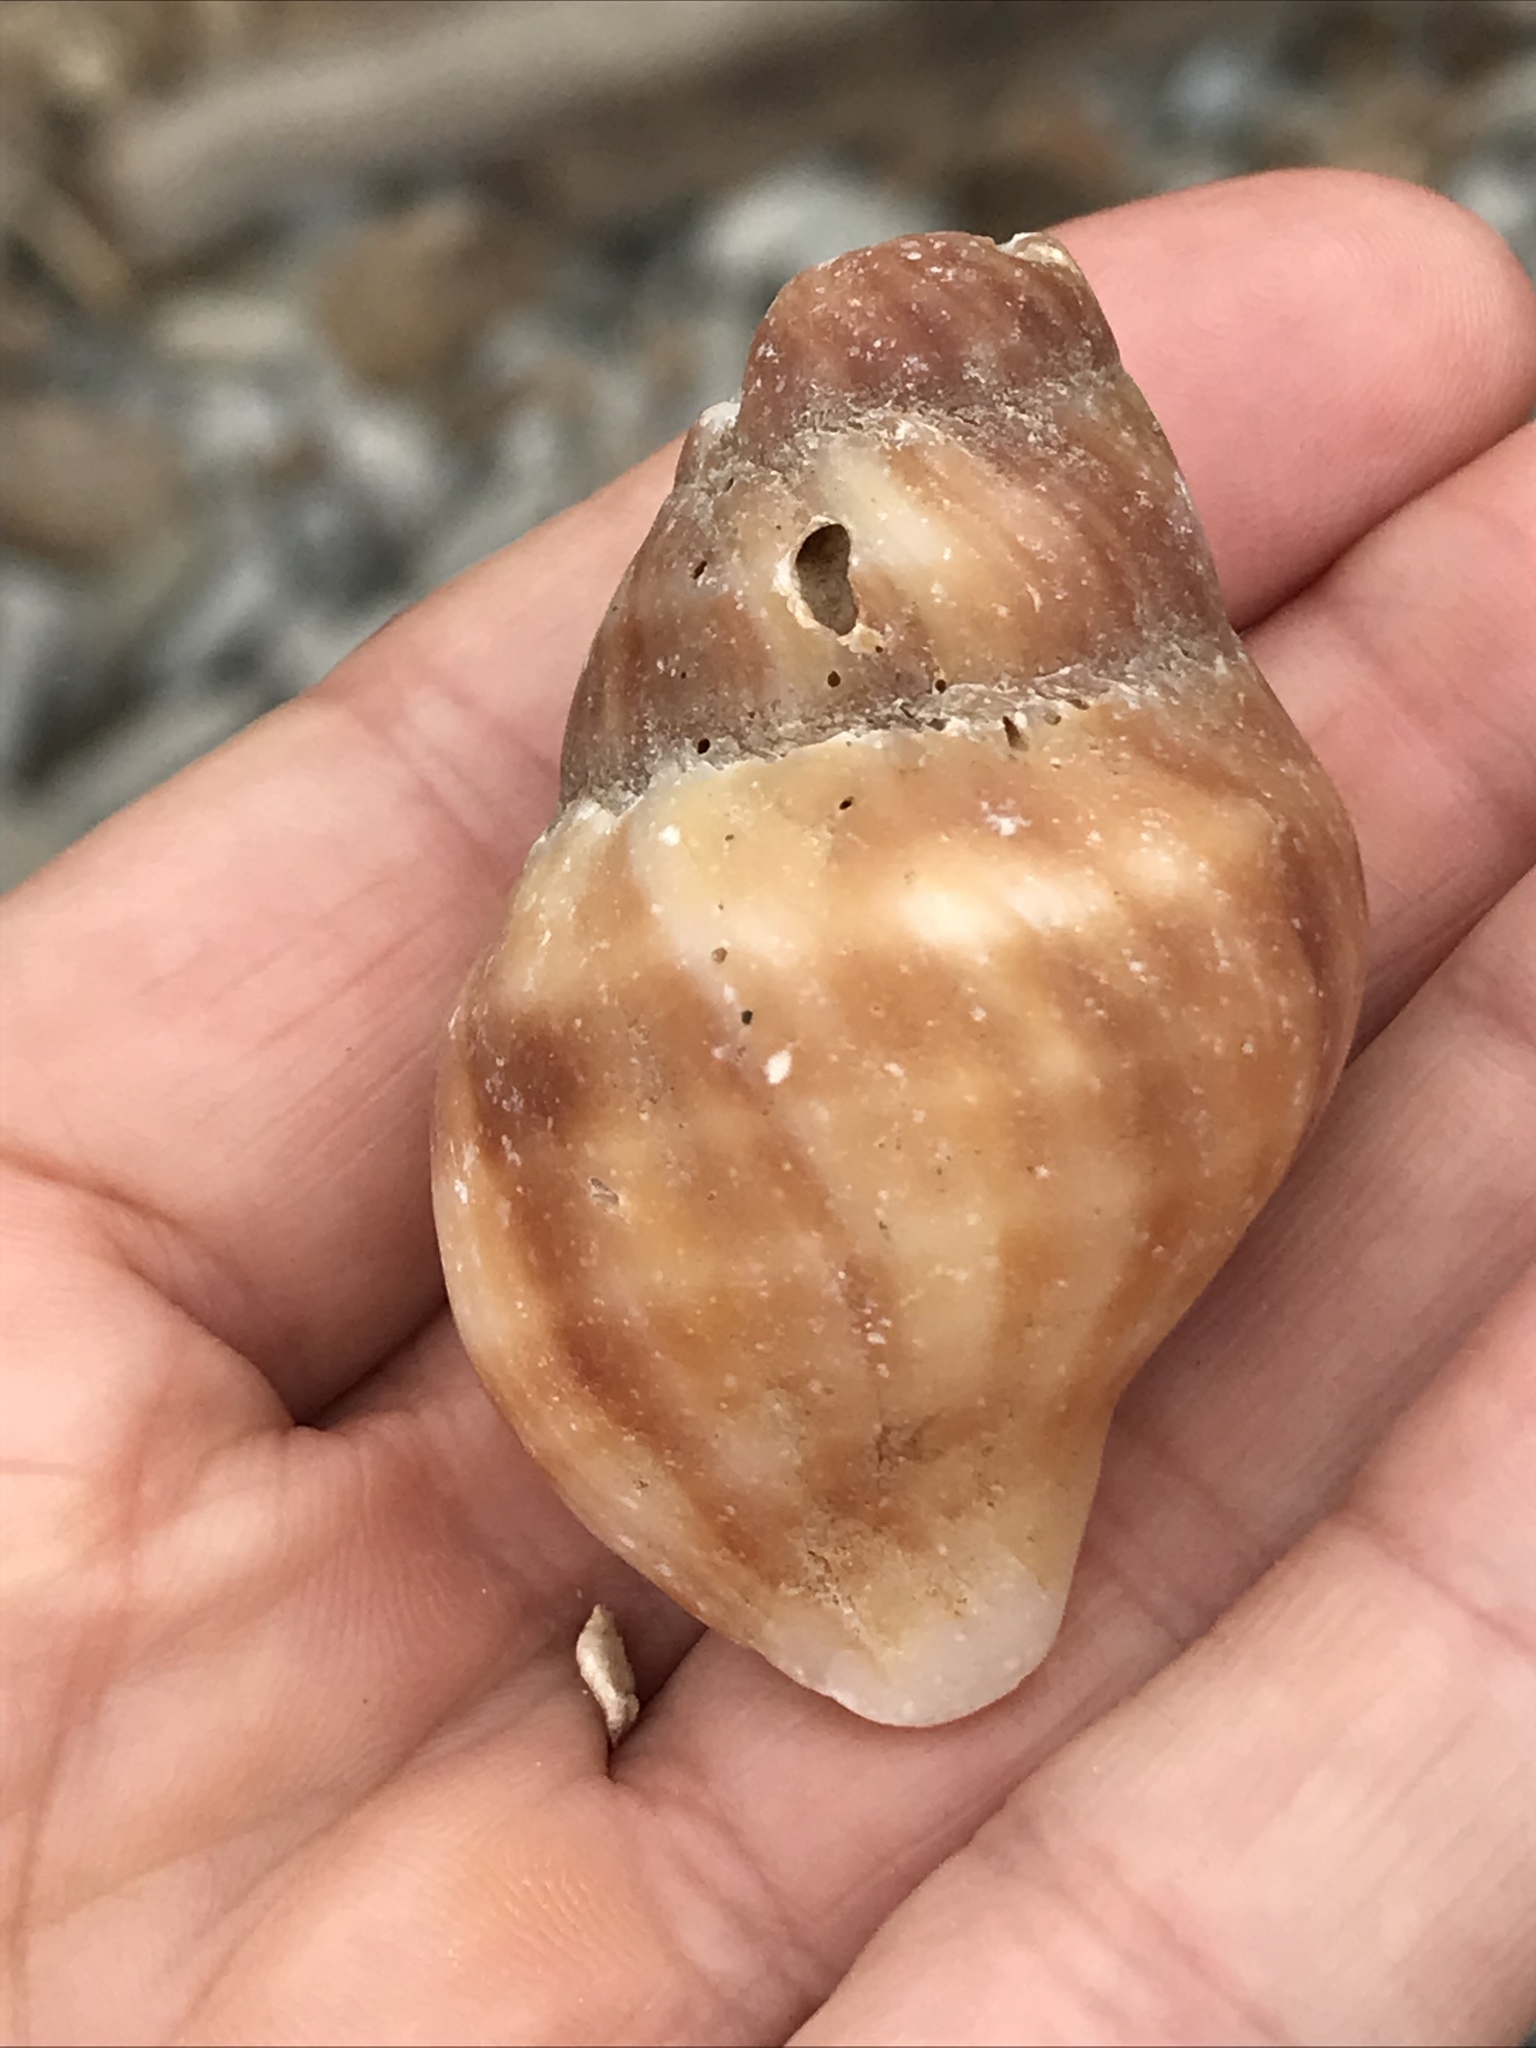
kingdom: Animalia
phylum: Mollusca
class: Gastropoda
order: Neogastropoda
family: Muricidae
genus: Nucella
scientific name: Nucella lamellosa
